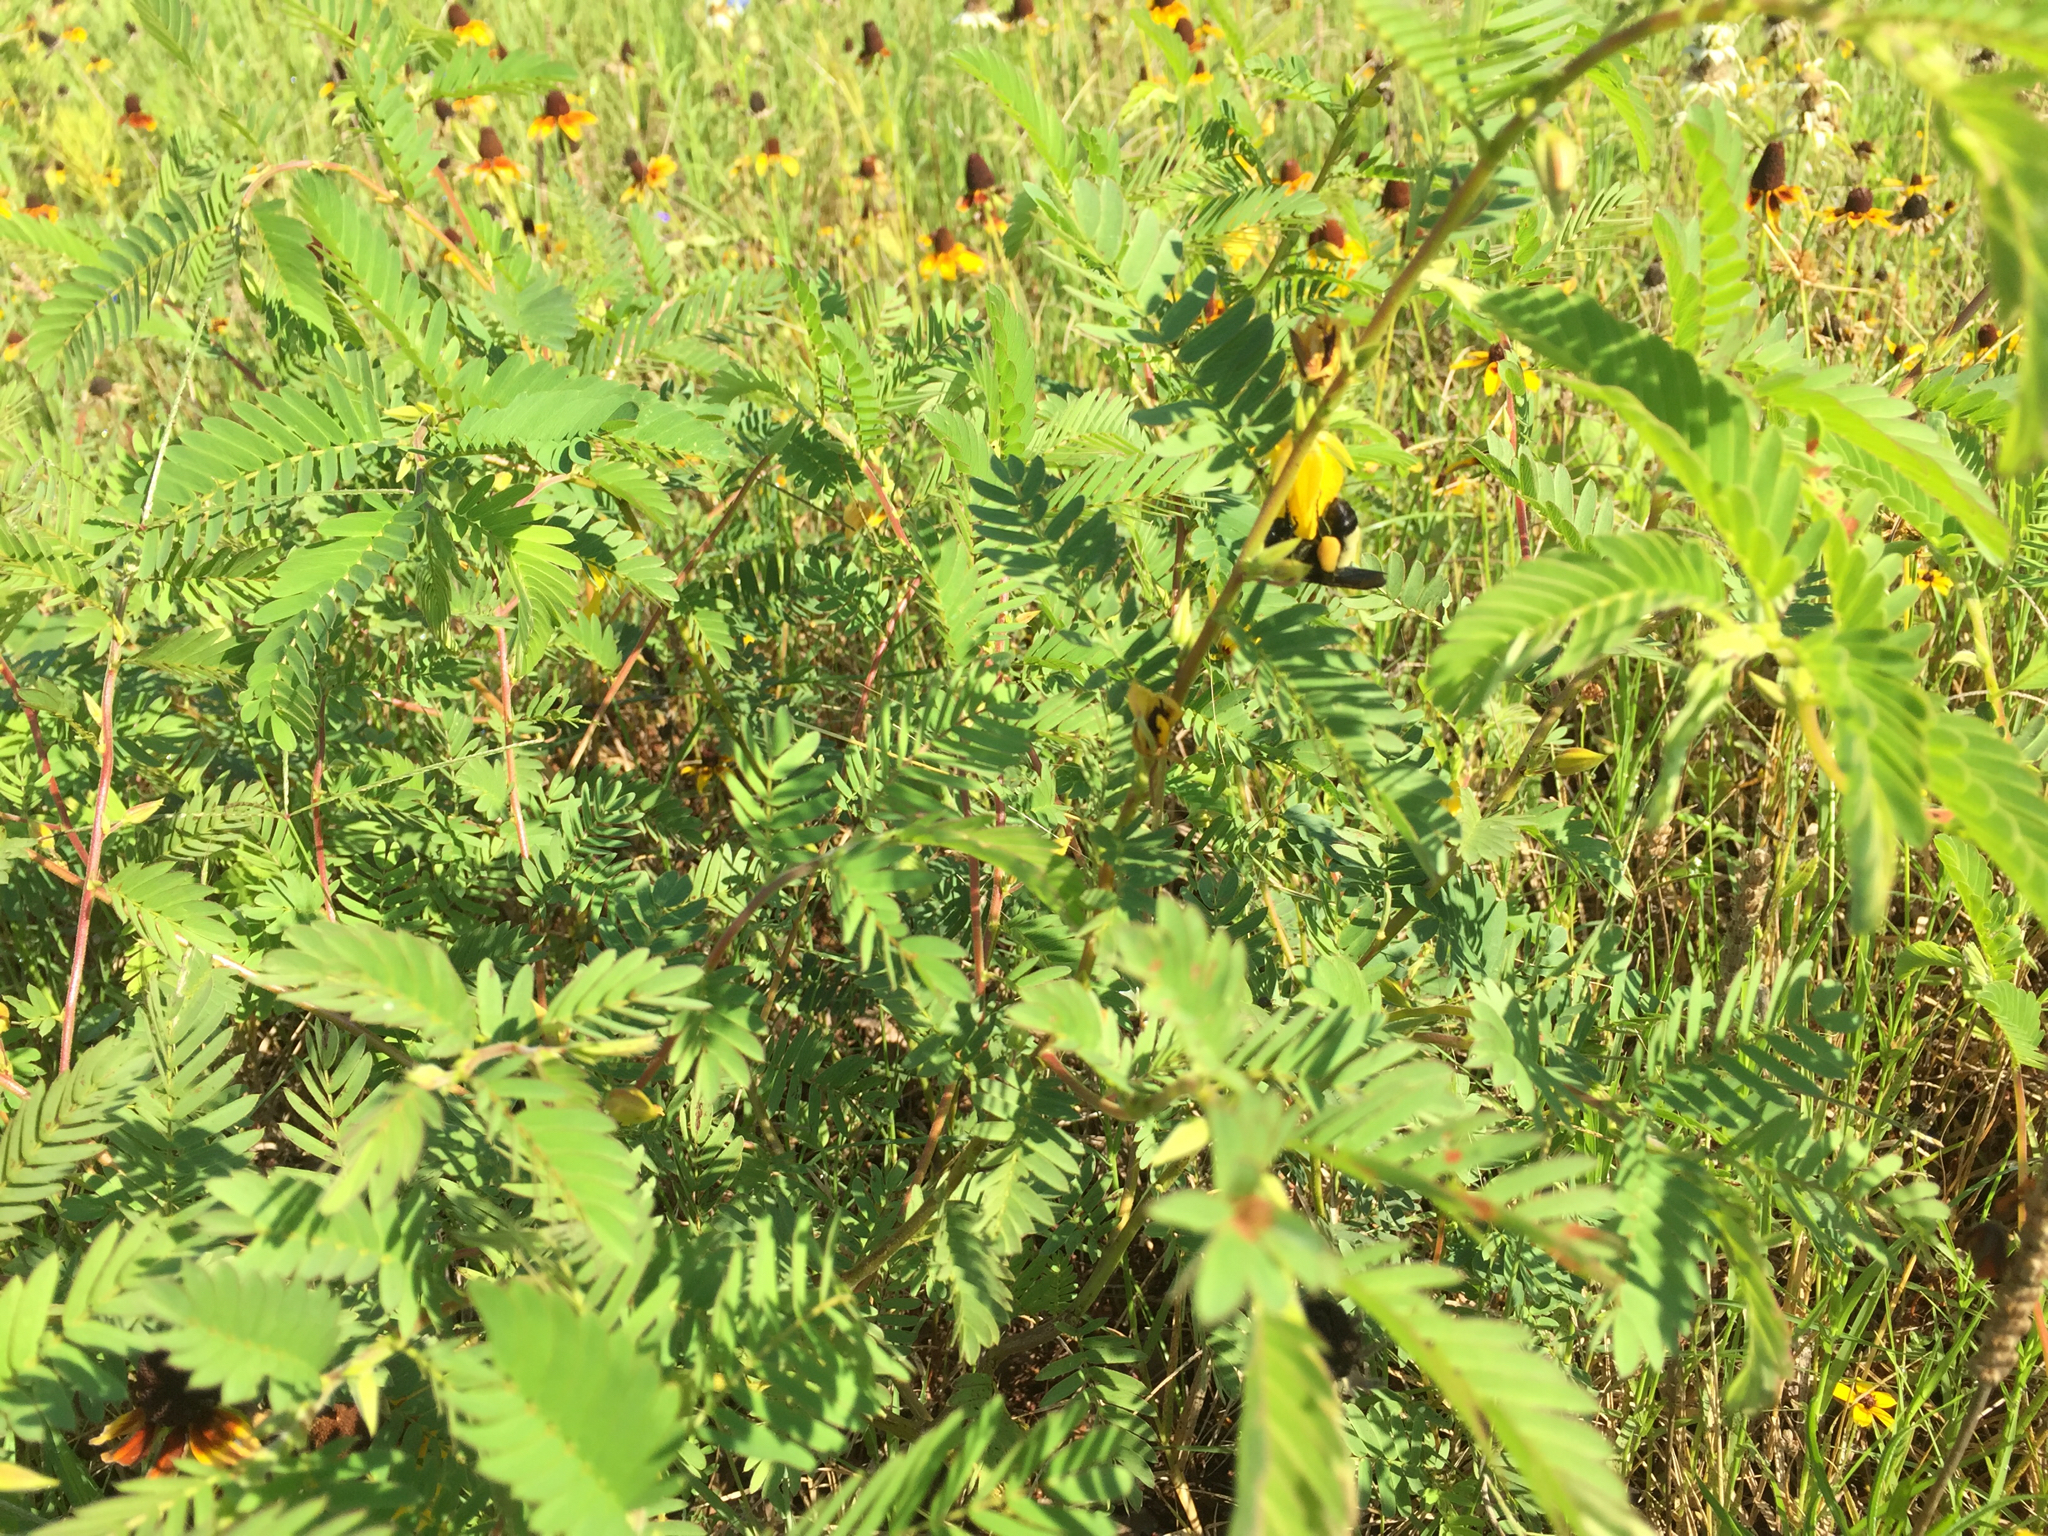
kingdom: Animalia
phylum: Arthropoda
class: Insecta
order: Hymenoptera
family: Apidae
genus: Bombus
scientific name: Bombus pensylvanicus
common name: Bumble bee
